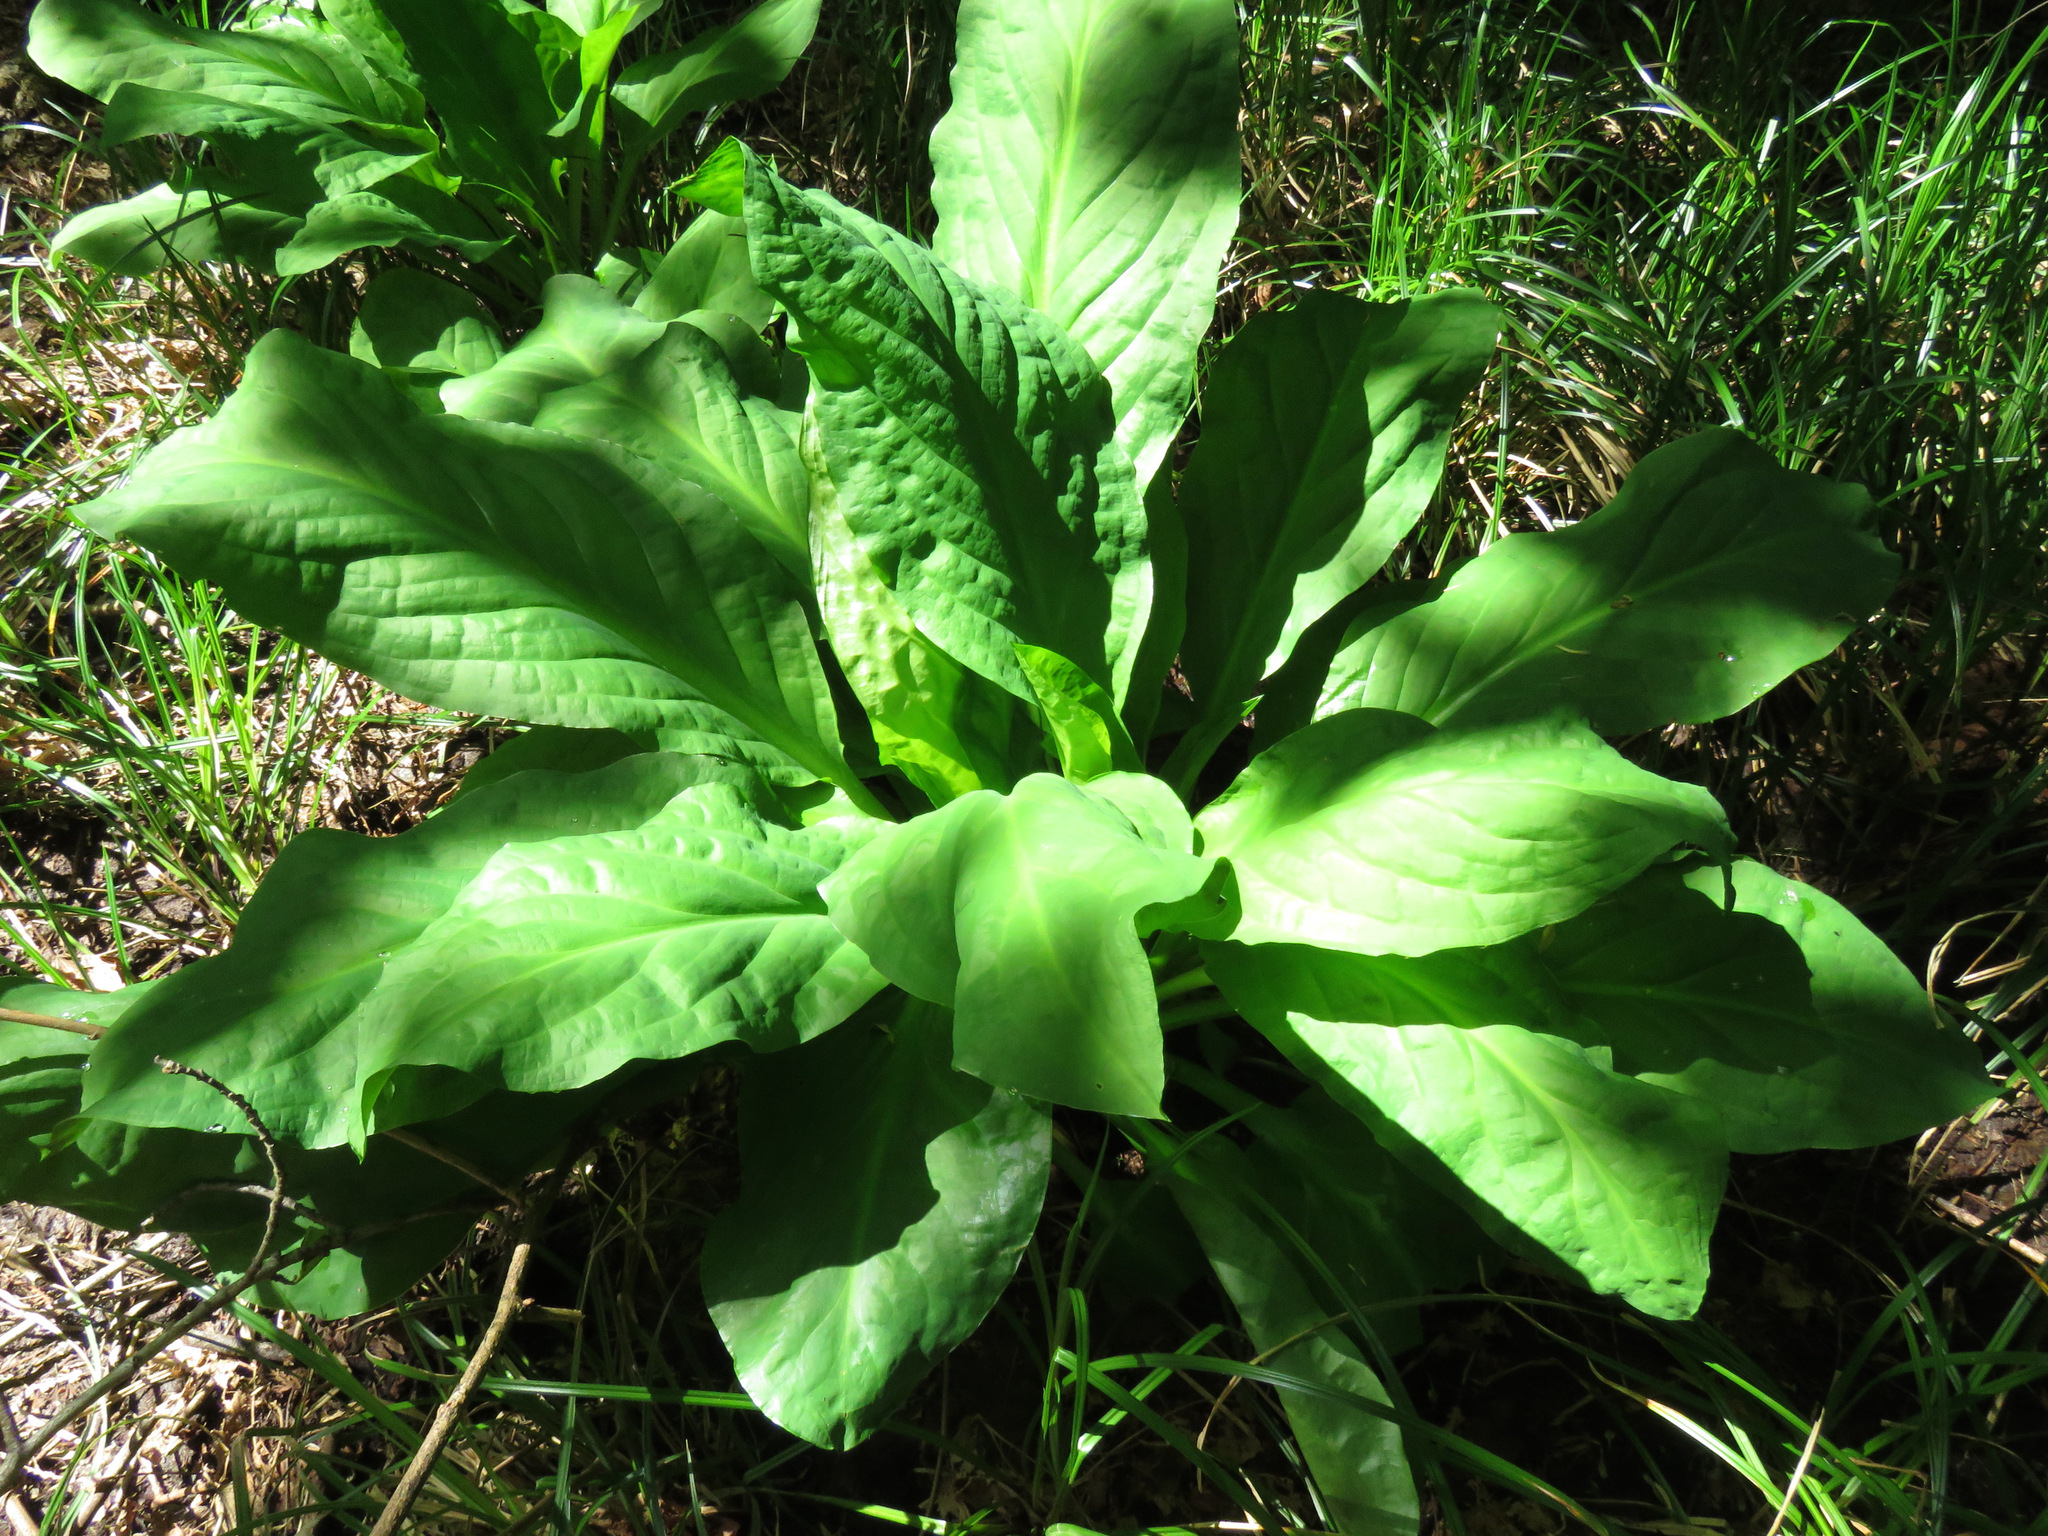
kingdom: Plantae
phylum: Tracheophyta
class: Liliopsida
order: Alismatales
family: Araceae
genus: Lysichiton
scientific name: Lysichiton americanus
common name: American skunk cabbage
